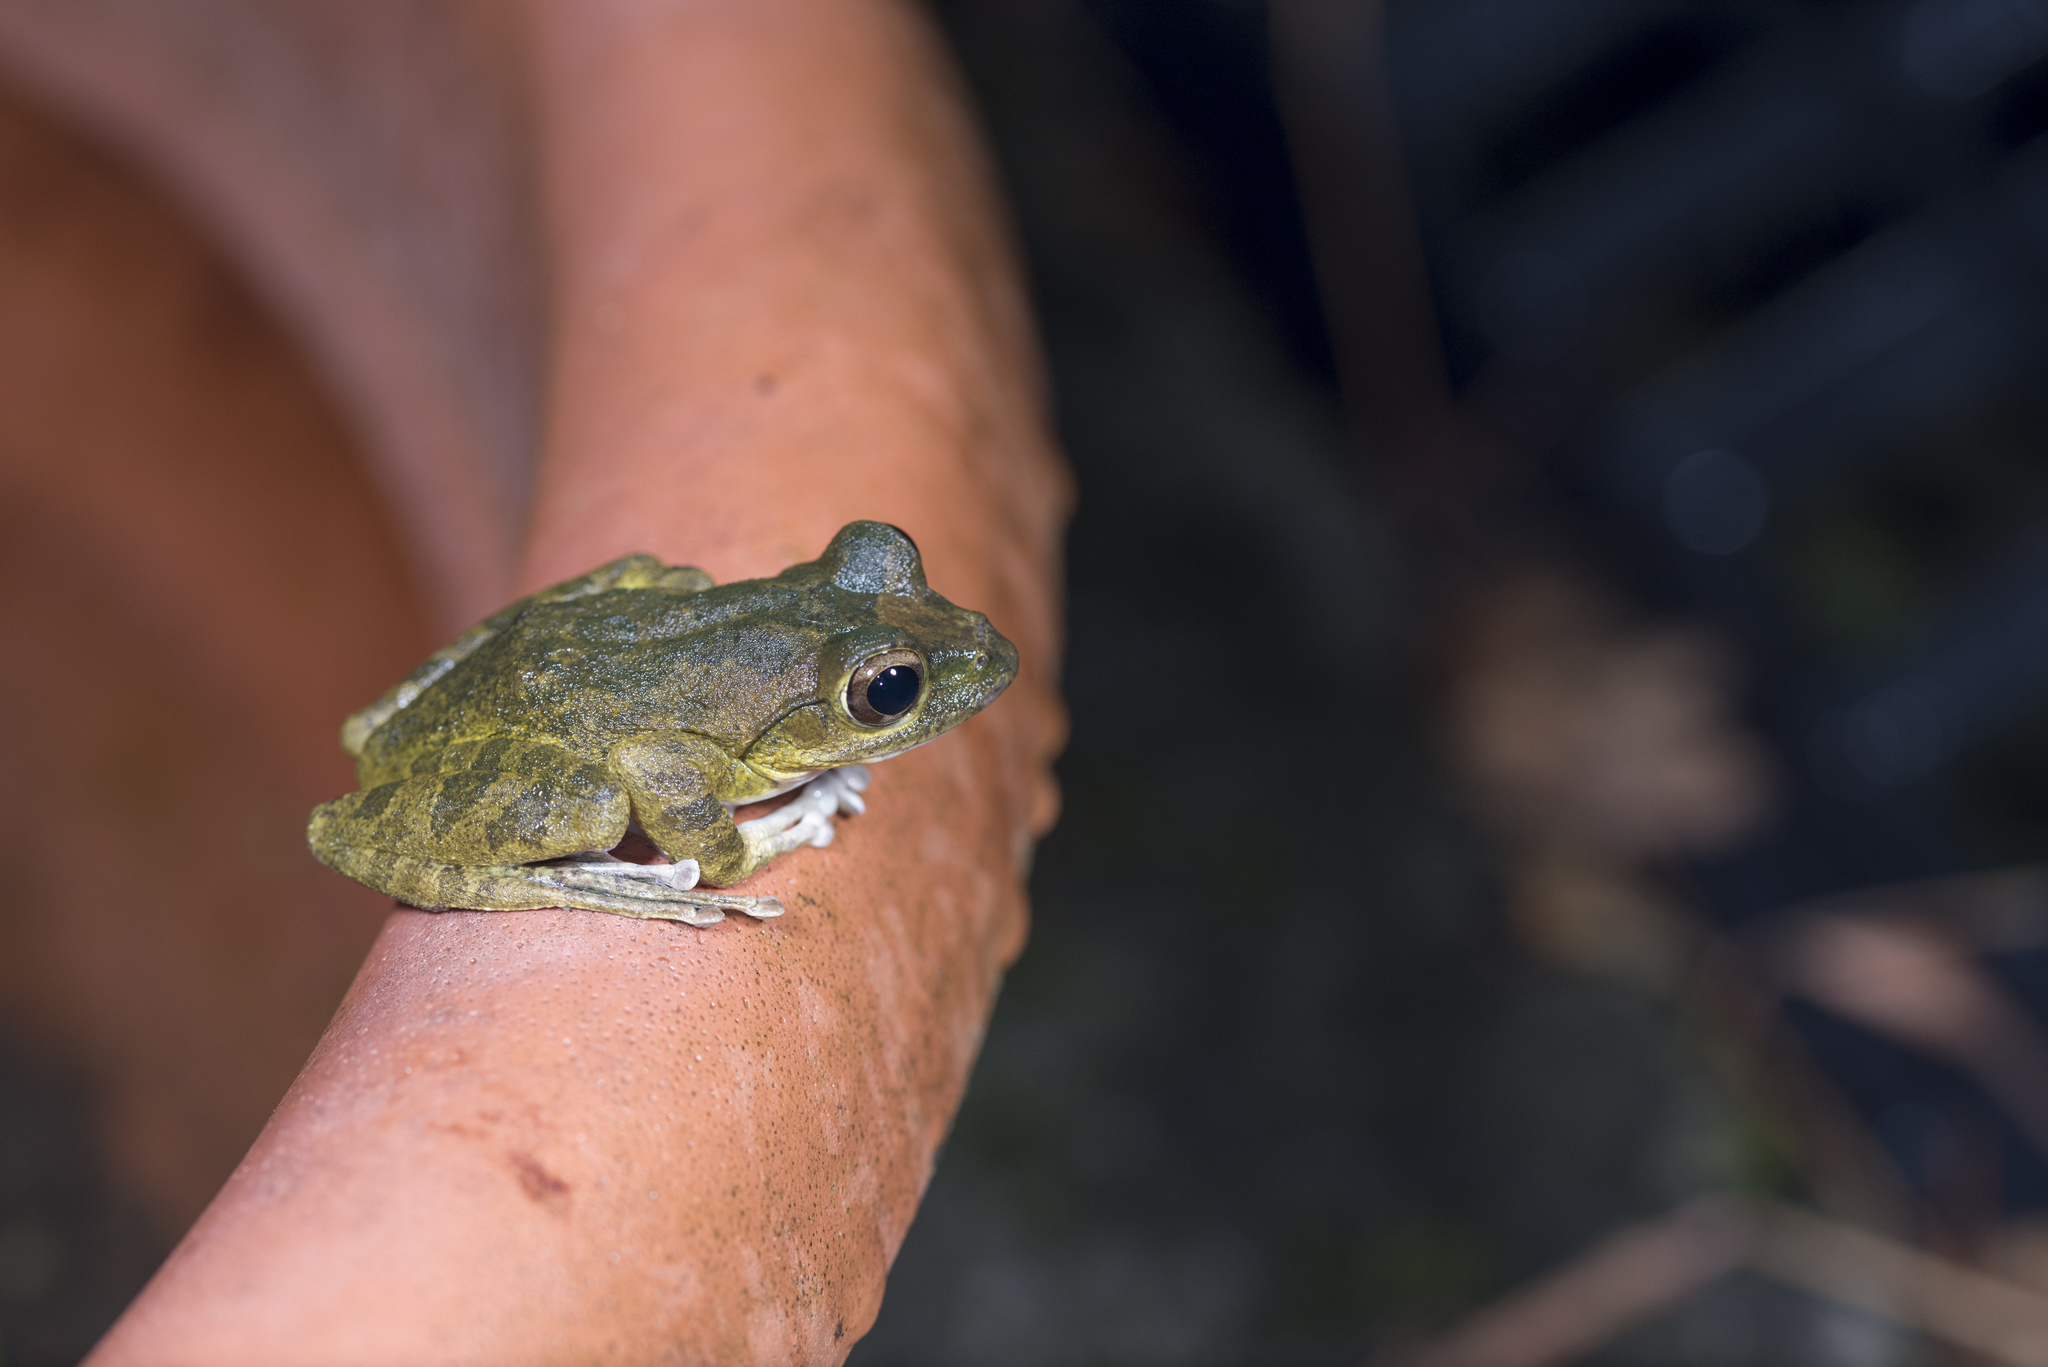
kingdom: Animalia
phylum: Chordata
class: Amphibia
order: Anura
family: Rhacophoridae
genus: Buergeria
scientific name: Buergeria robusta
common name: Brown treefrog
